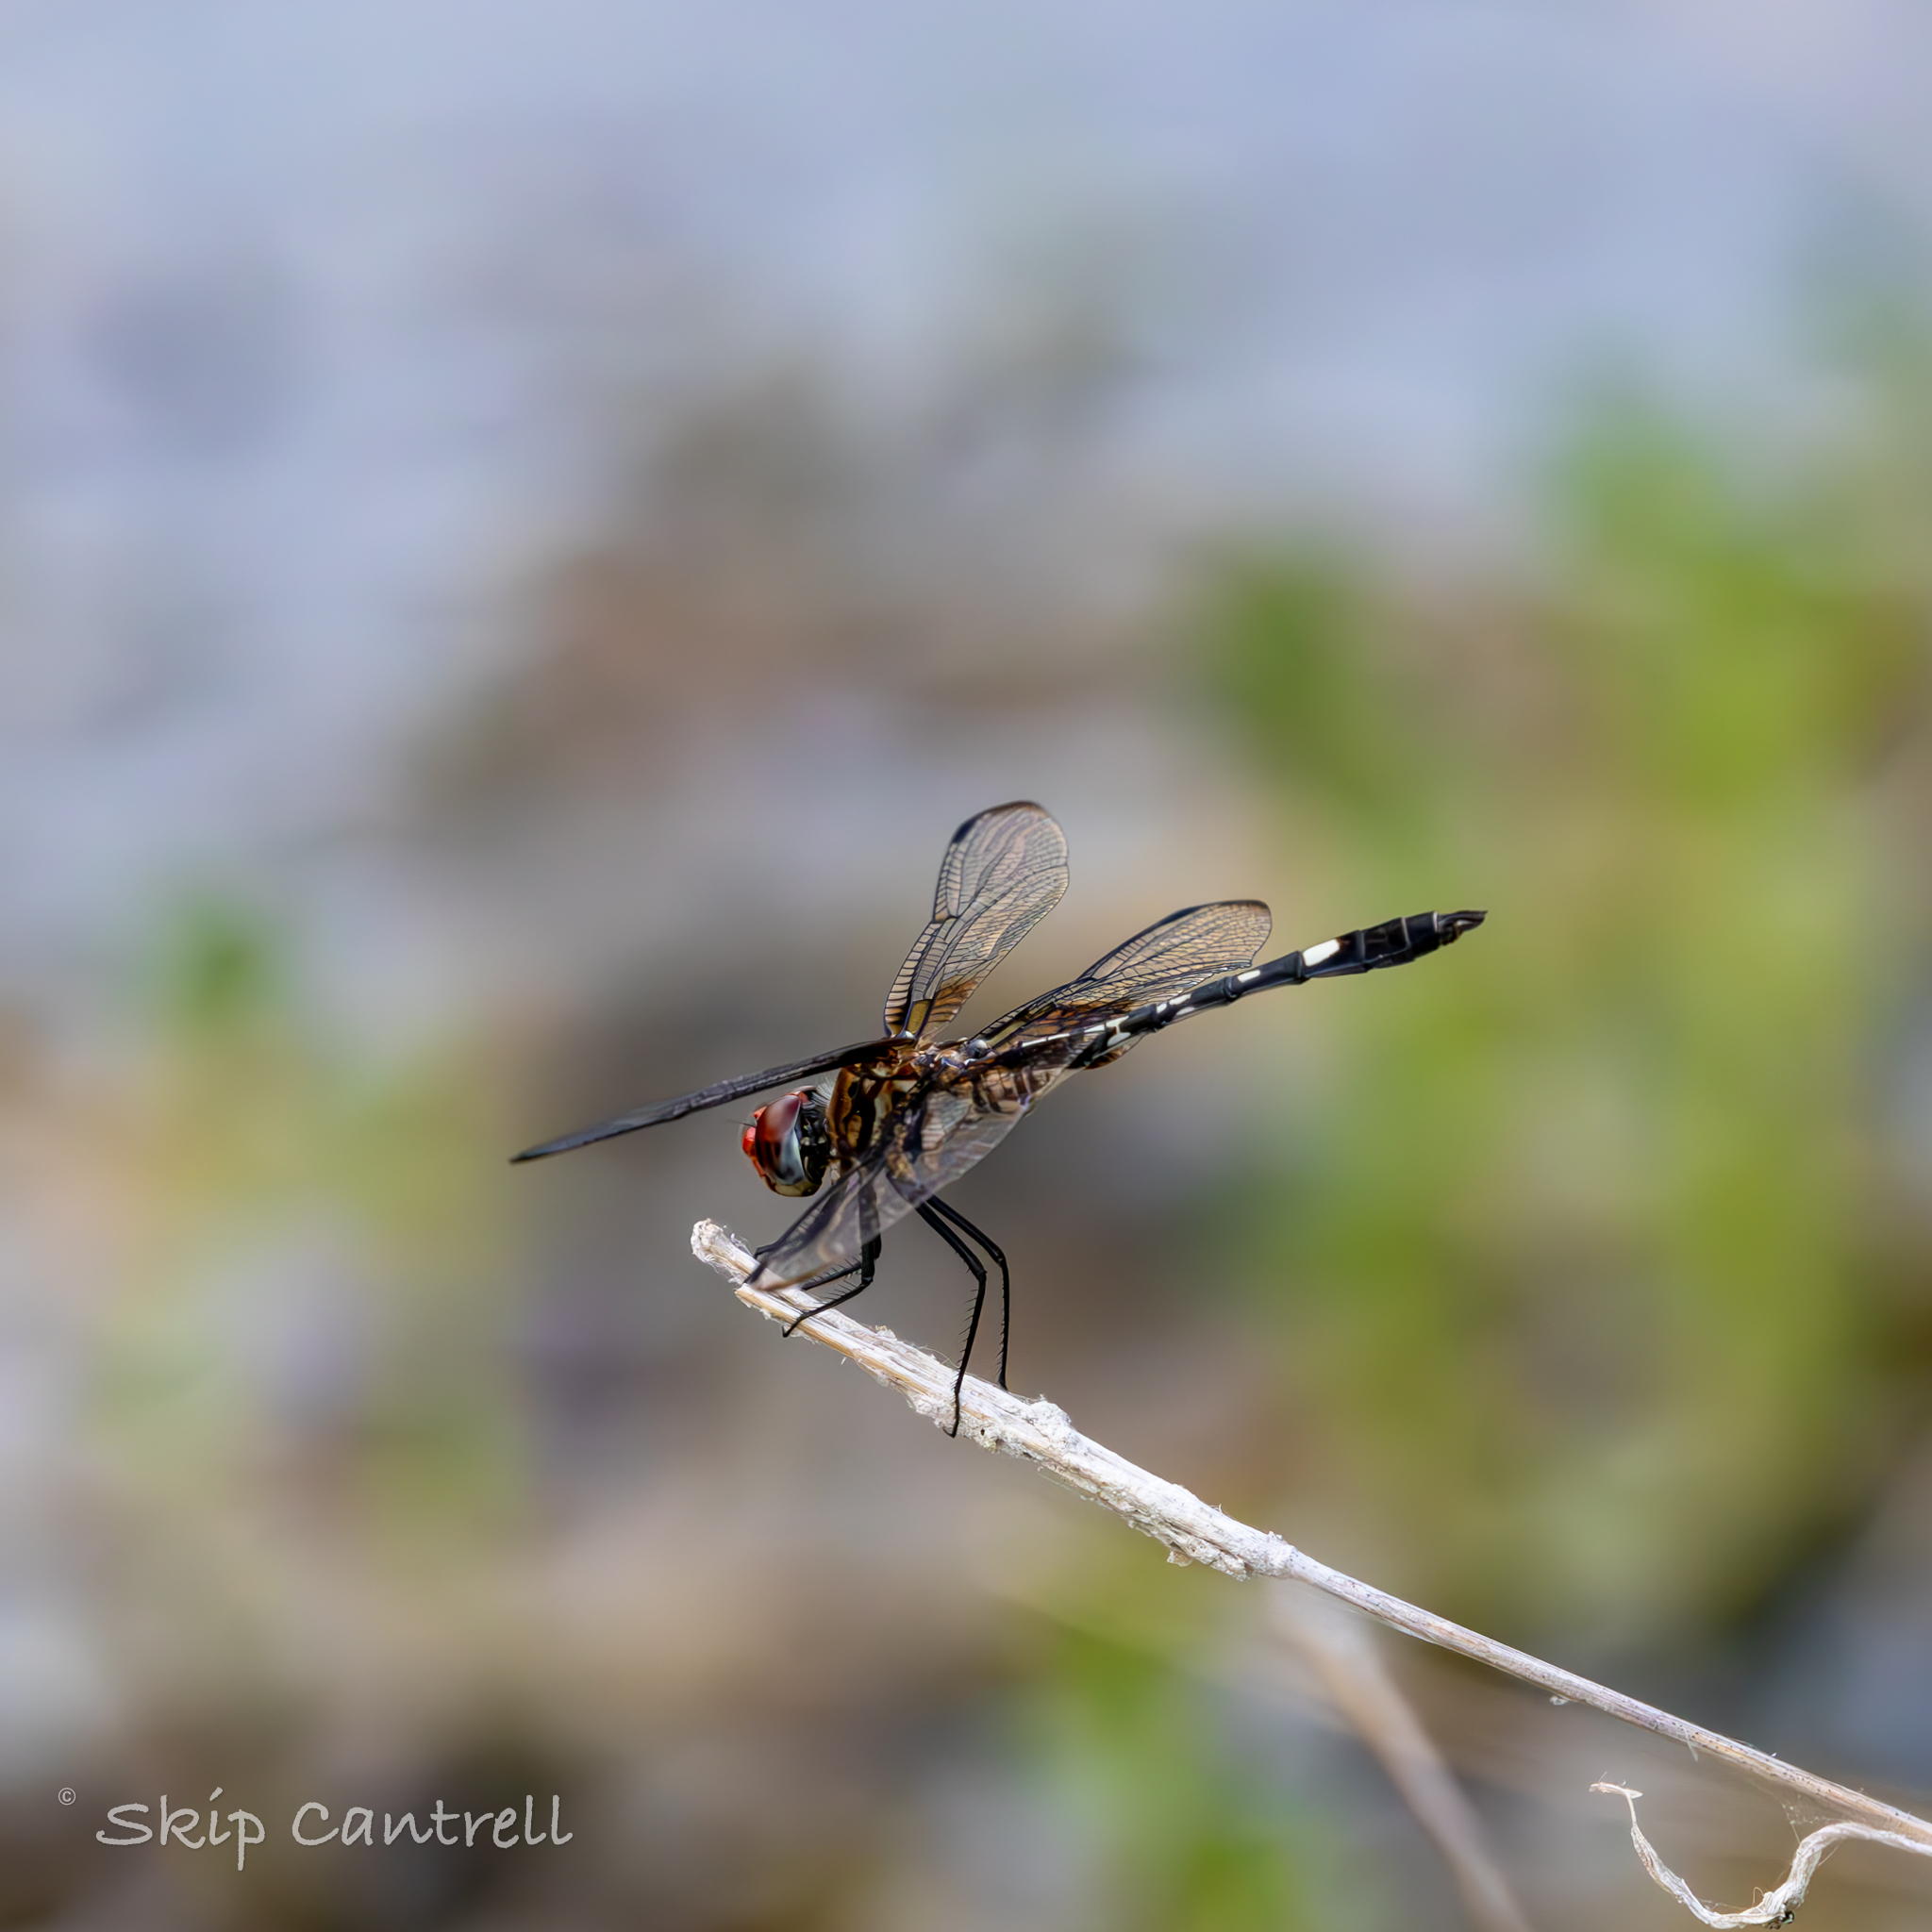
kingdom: Animalia
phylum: Arthropoda
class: Insecta
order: Odonata
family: Libellulidae
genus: Dythemis
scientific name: Dythemis fugax
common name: Checkered setwing
